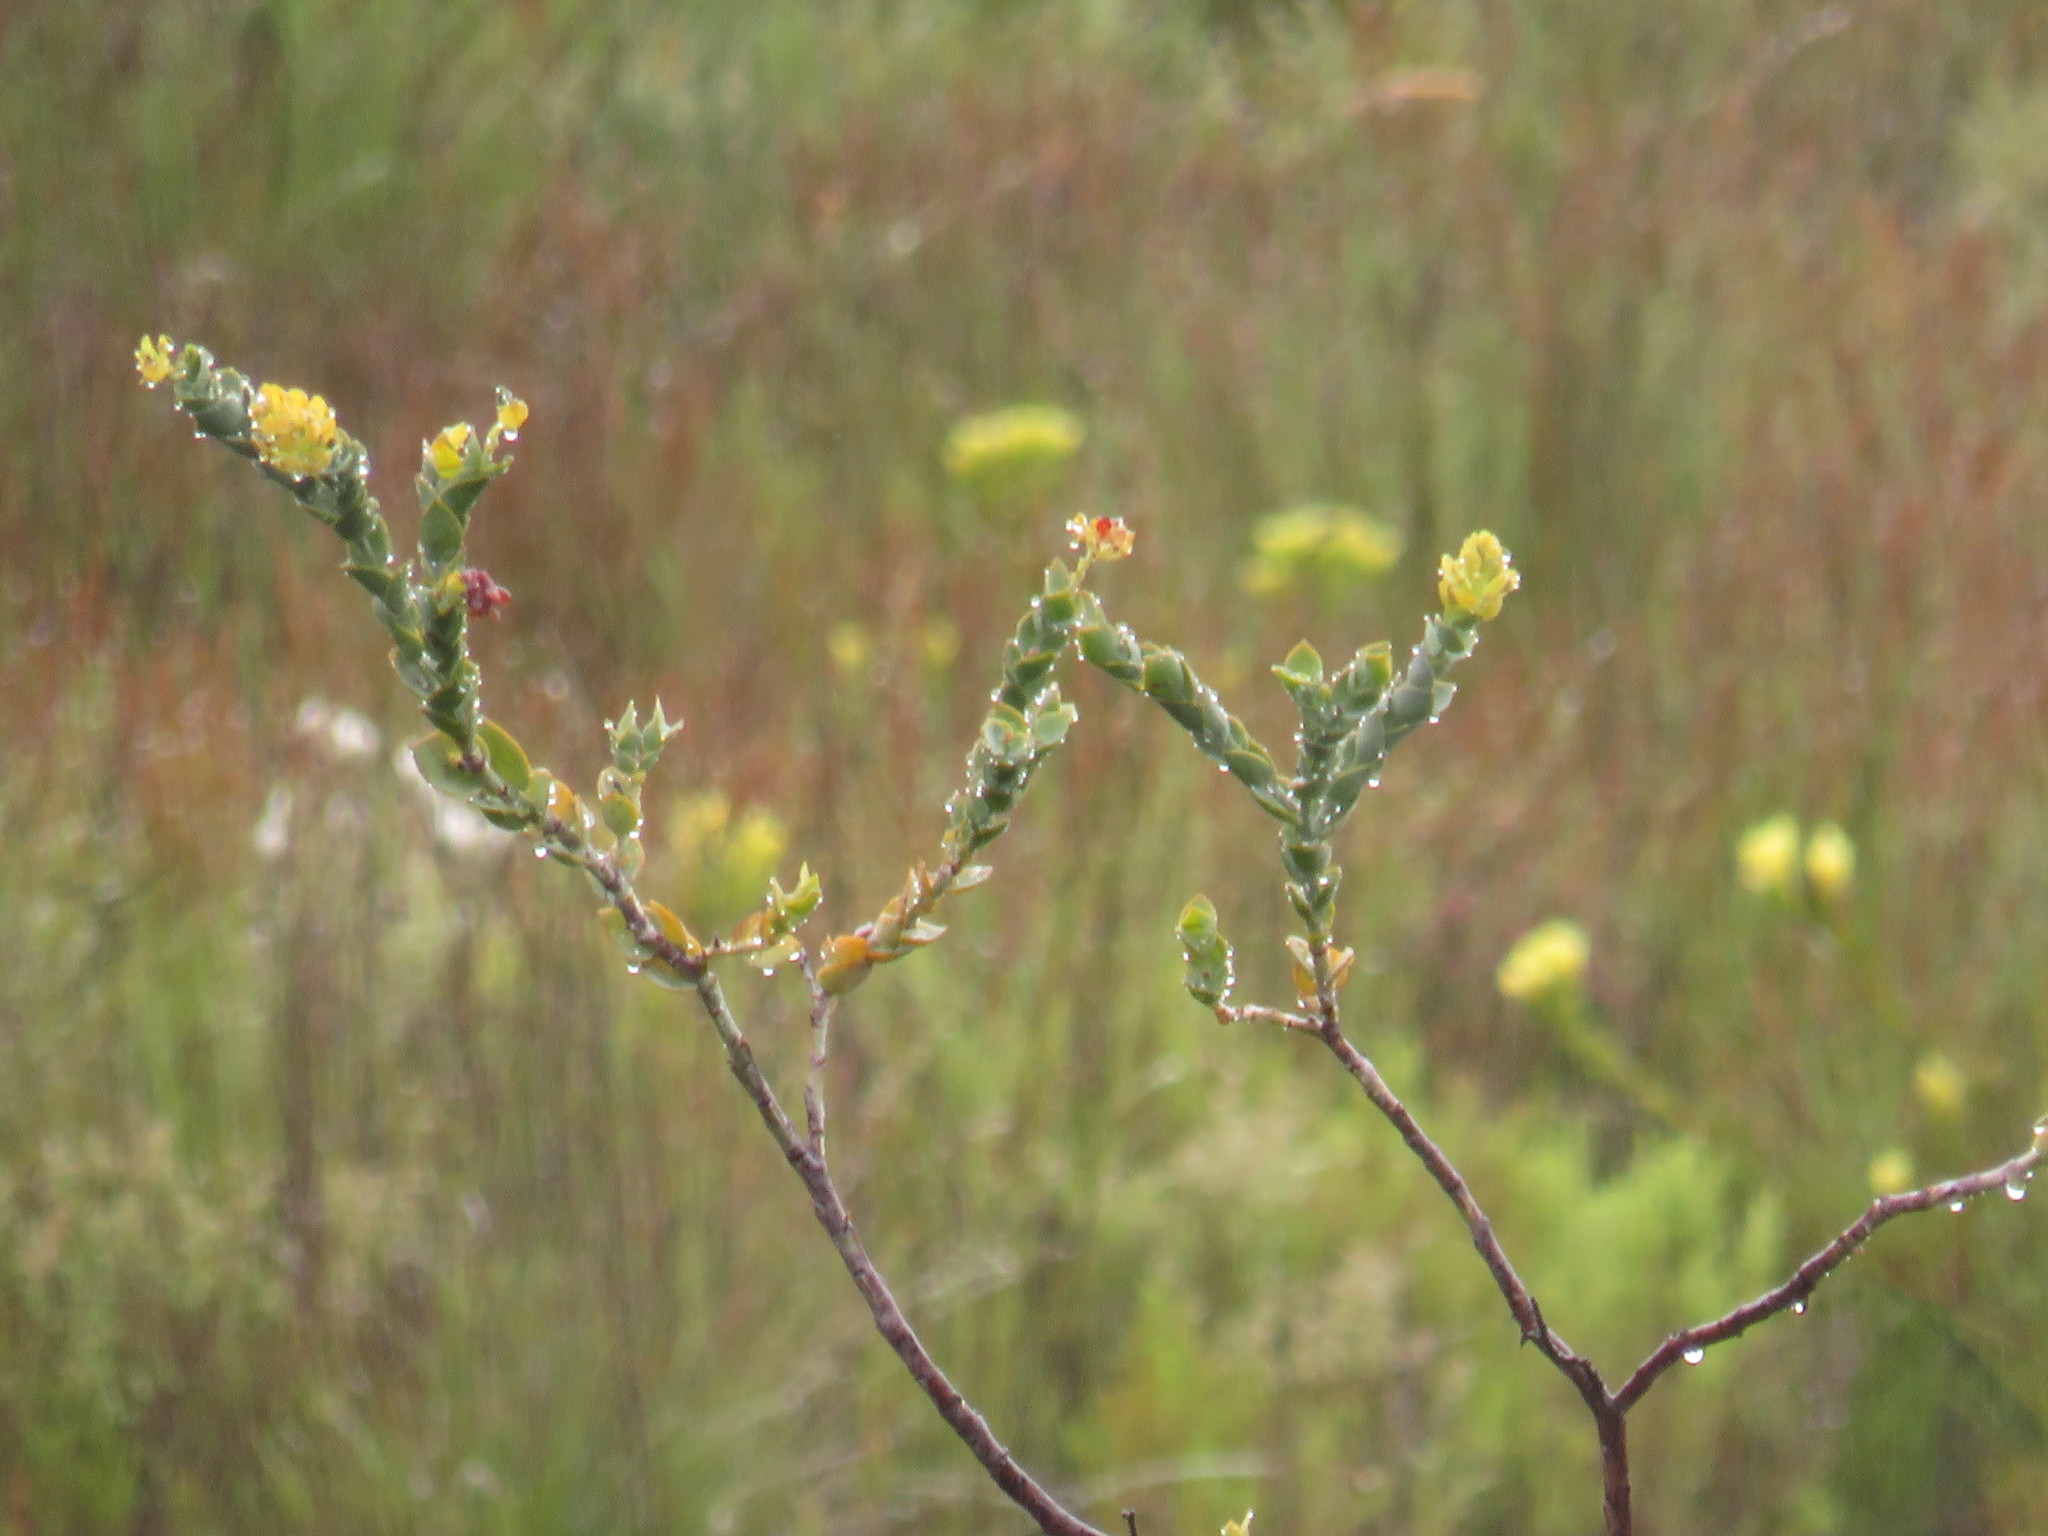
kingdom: Plantae
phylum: Tracheophyta
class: Magnoliopsida
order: Santalales
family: Thesiaceae
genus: Thesium
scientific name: Thesium euphorbioides
